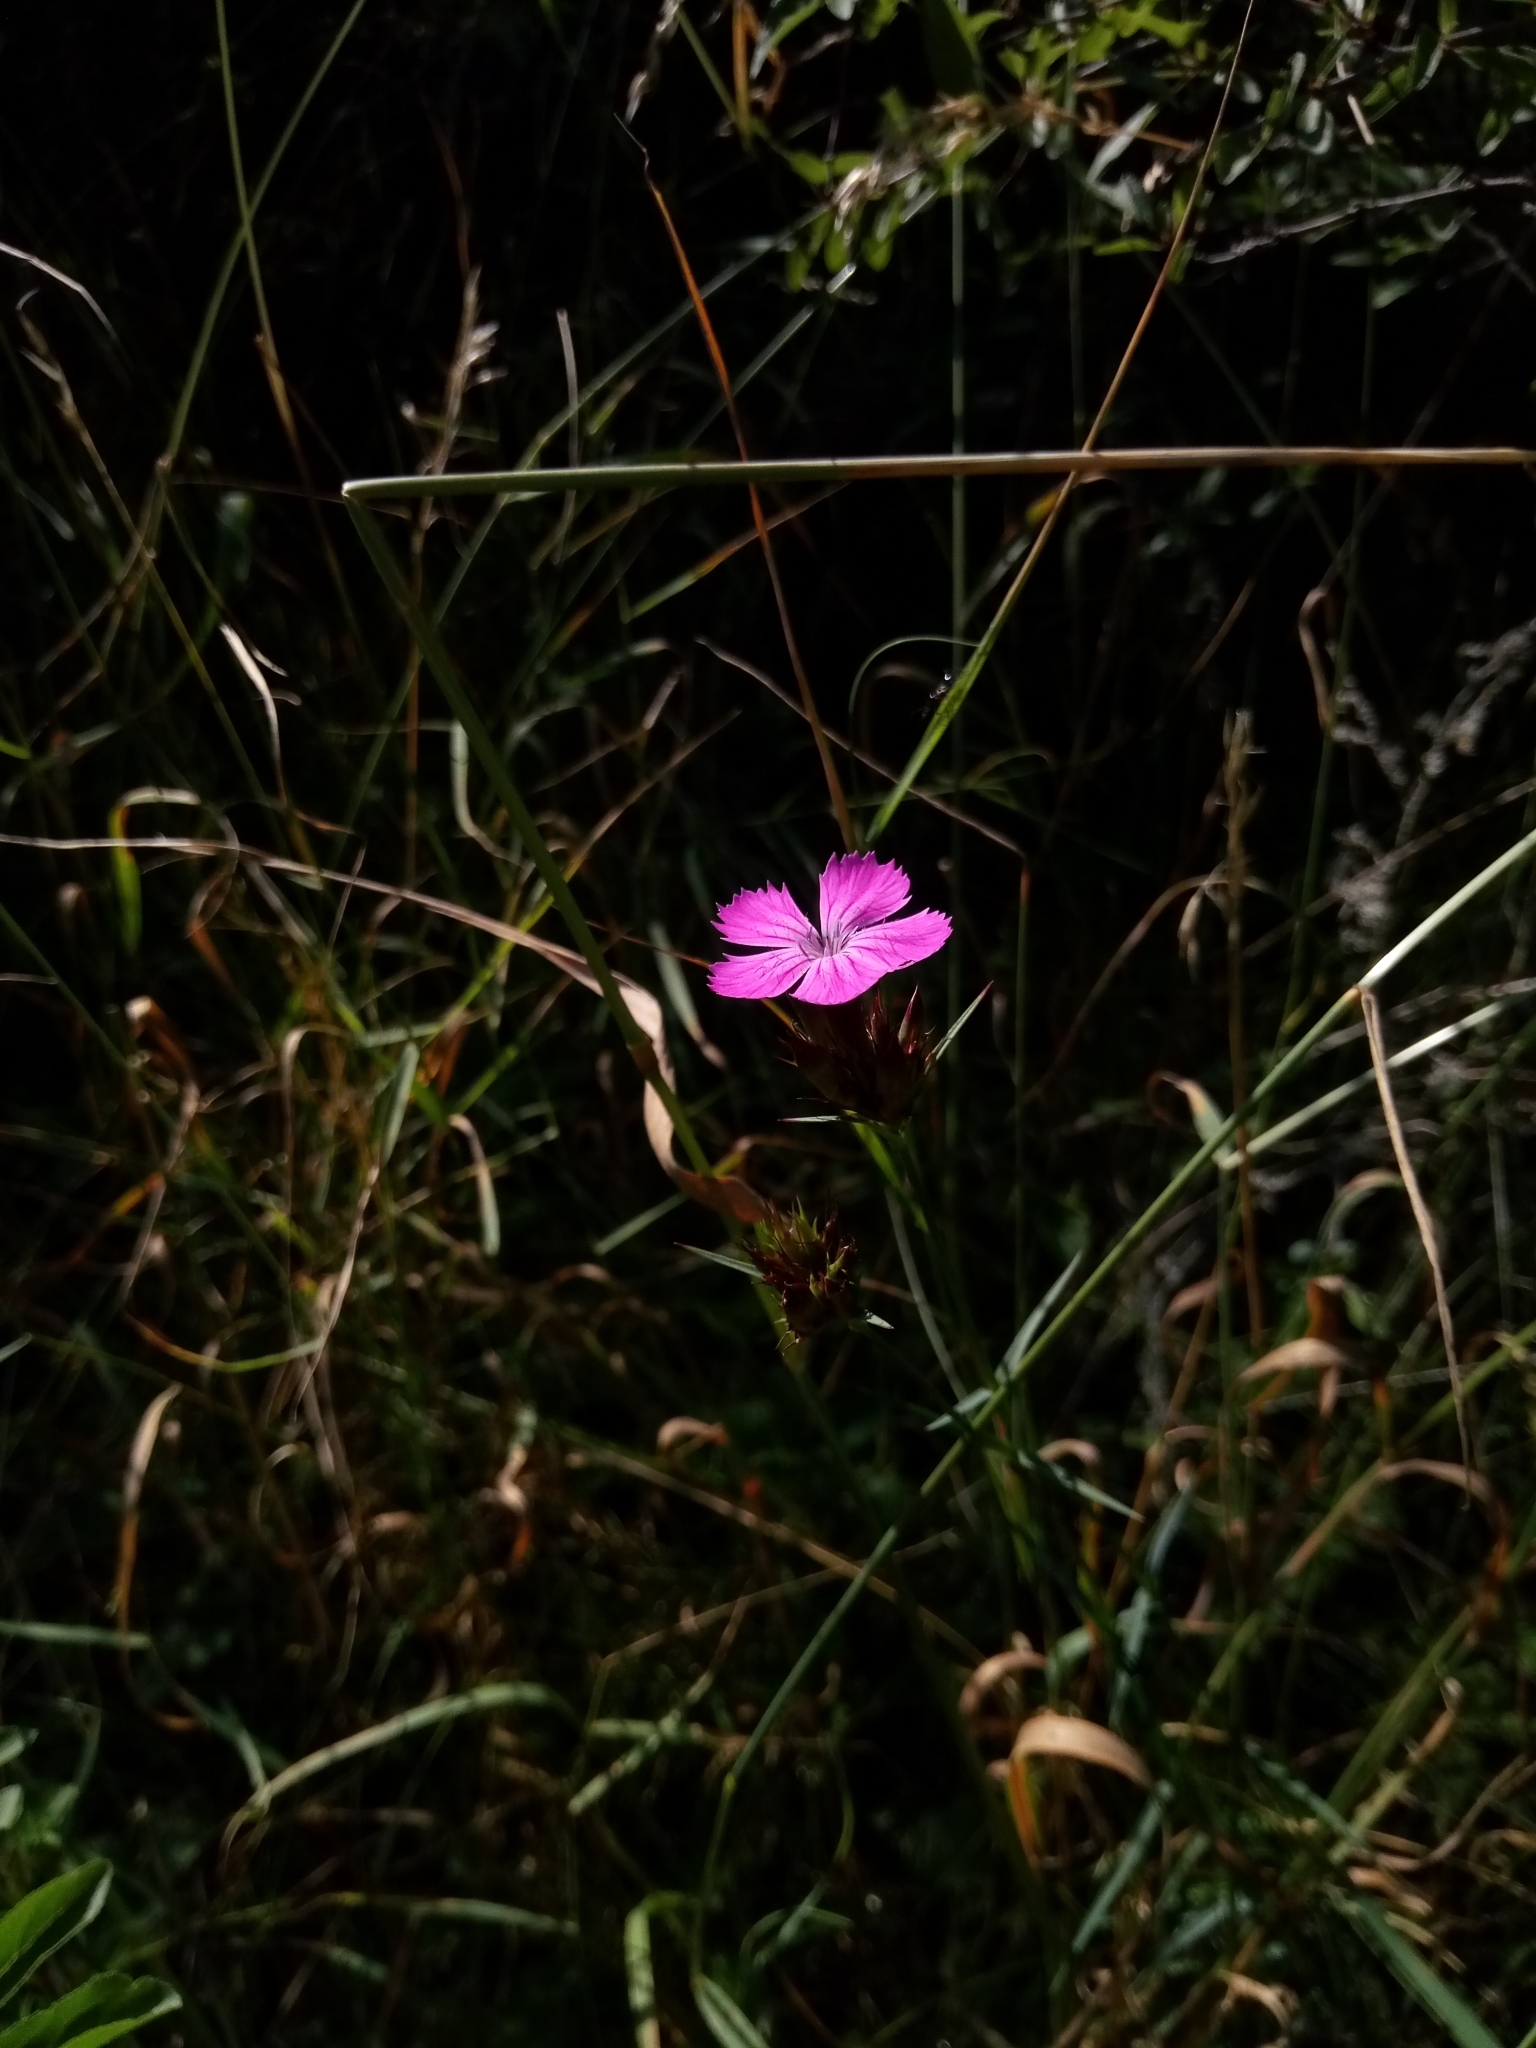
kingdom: Plantae
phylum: Tracheophyta
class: Magnoliopsida
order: Caryophyllales
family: Caryophyllaceae
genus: Dianthus
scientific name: Dianthus carthusianorum
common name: Carthusian pink
